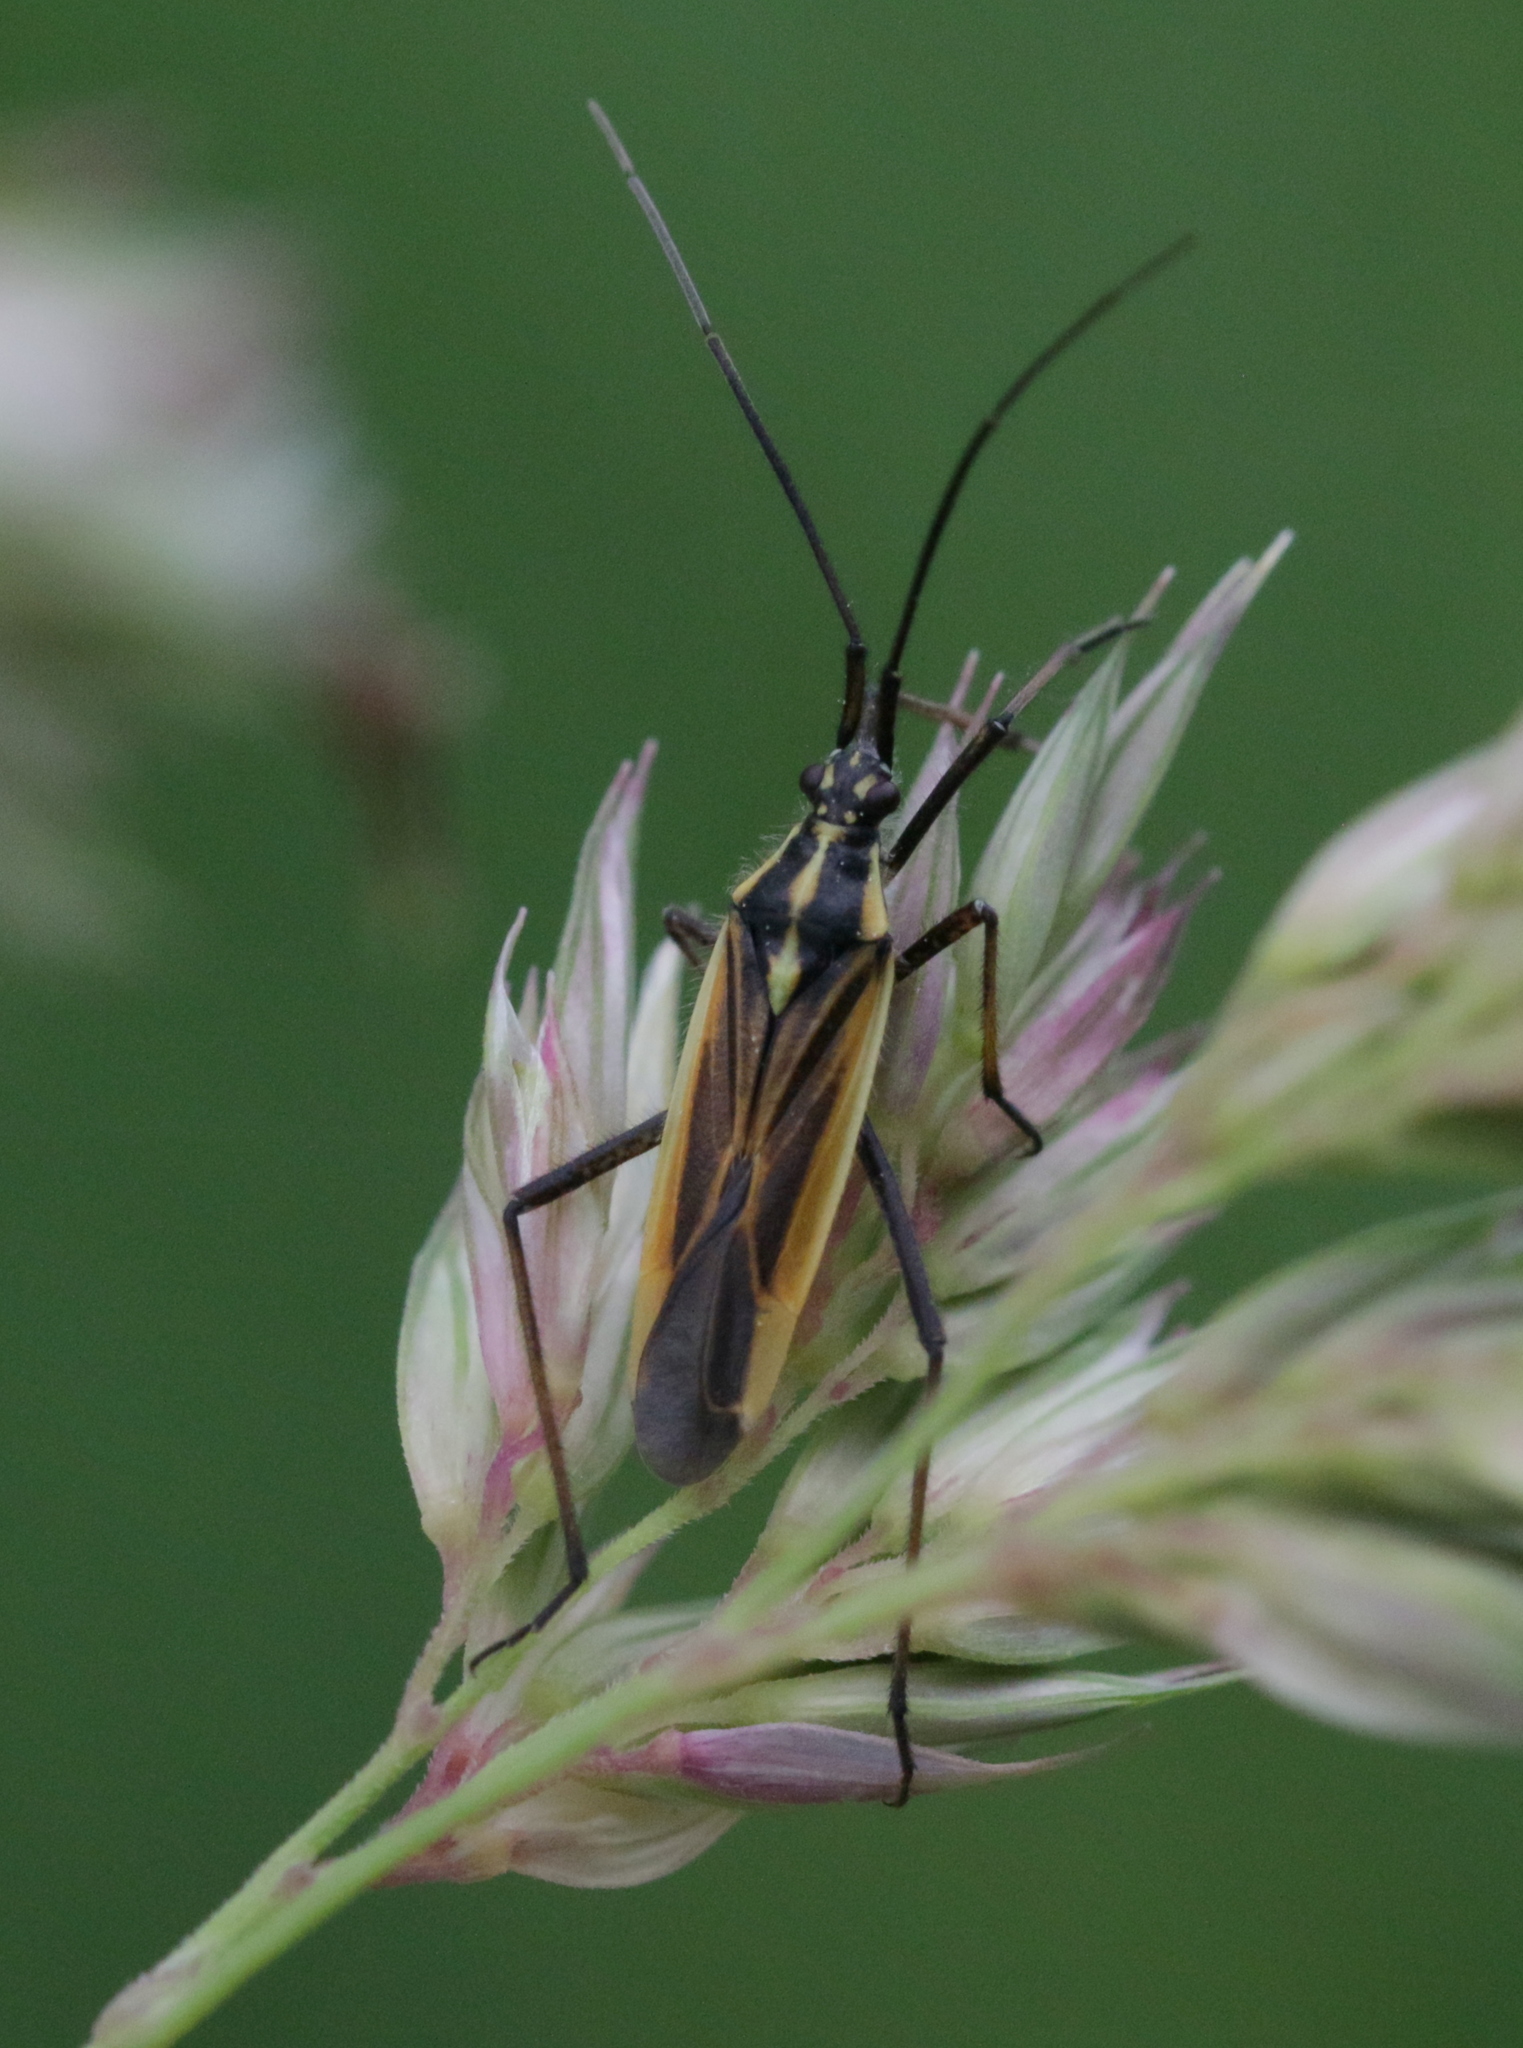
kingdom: Animalia
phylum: Arthropoda
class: Insecta
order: Hemiptera
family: Miridae
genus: Leptopterna
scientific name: Leptopterna dolabrata
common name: Meadow plant bug
